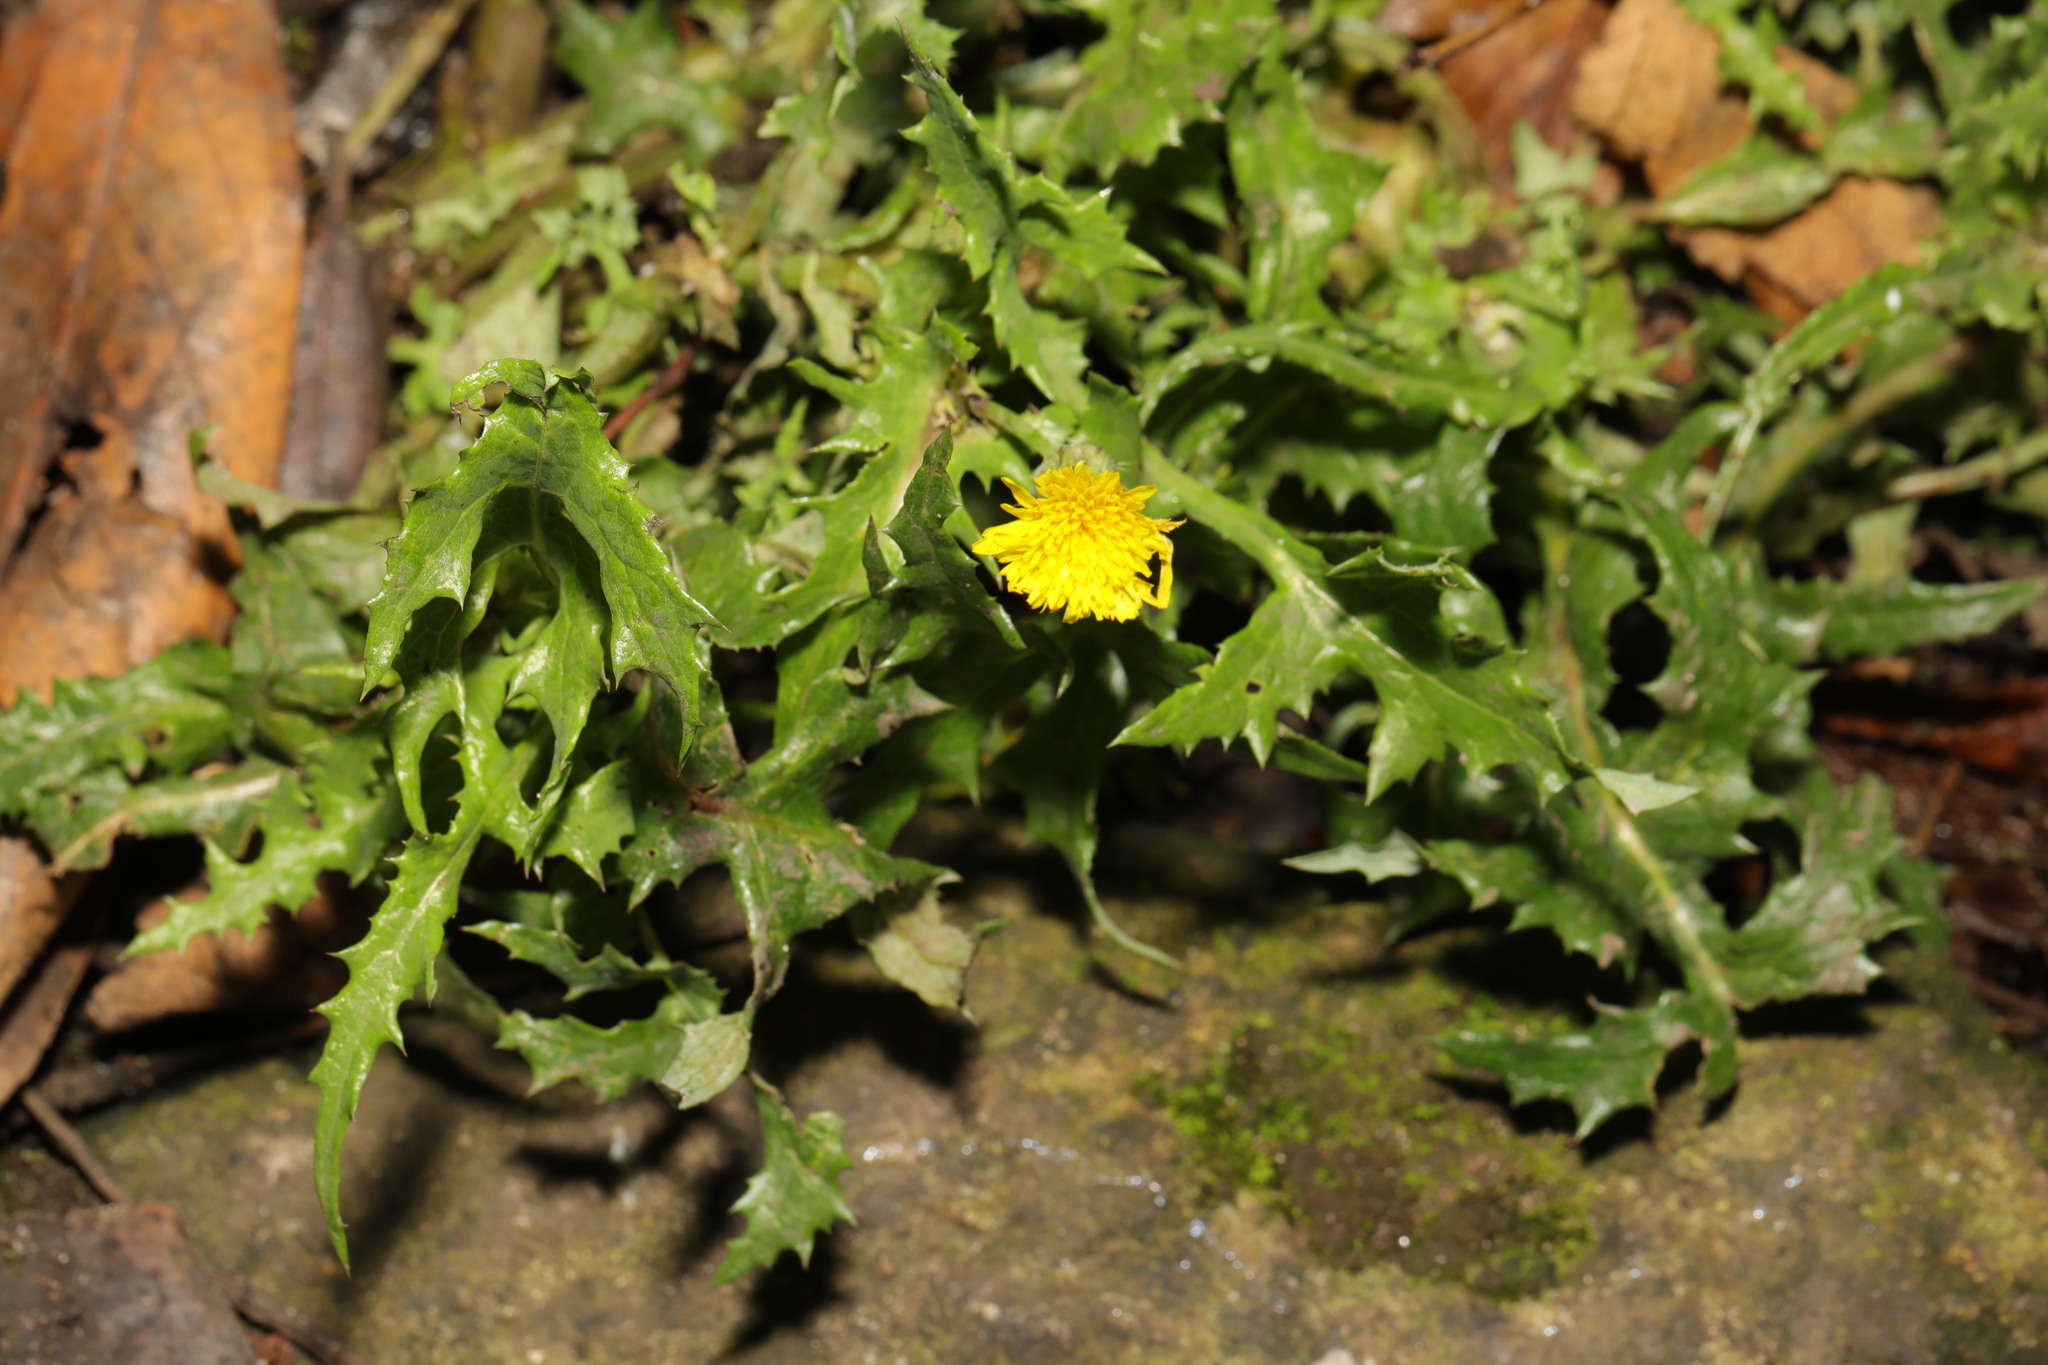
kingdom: Plantae
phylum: Tracheophyta
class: Magnoliopsida
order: Asterales
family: Asteraceae
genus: Sonchus
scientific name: Sonchus asper
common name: Prickly sow-thistle
